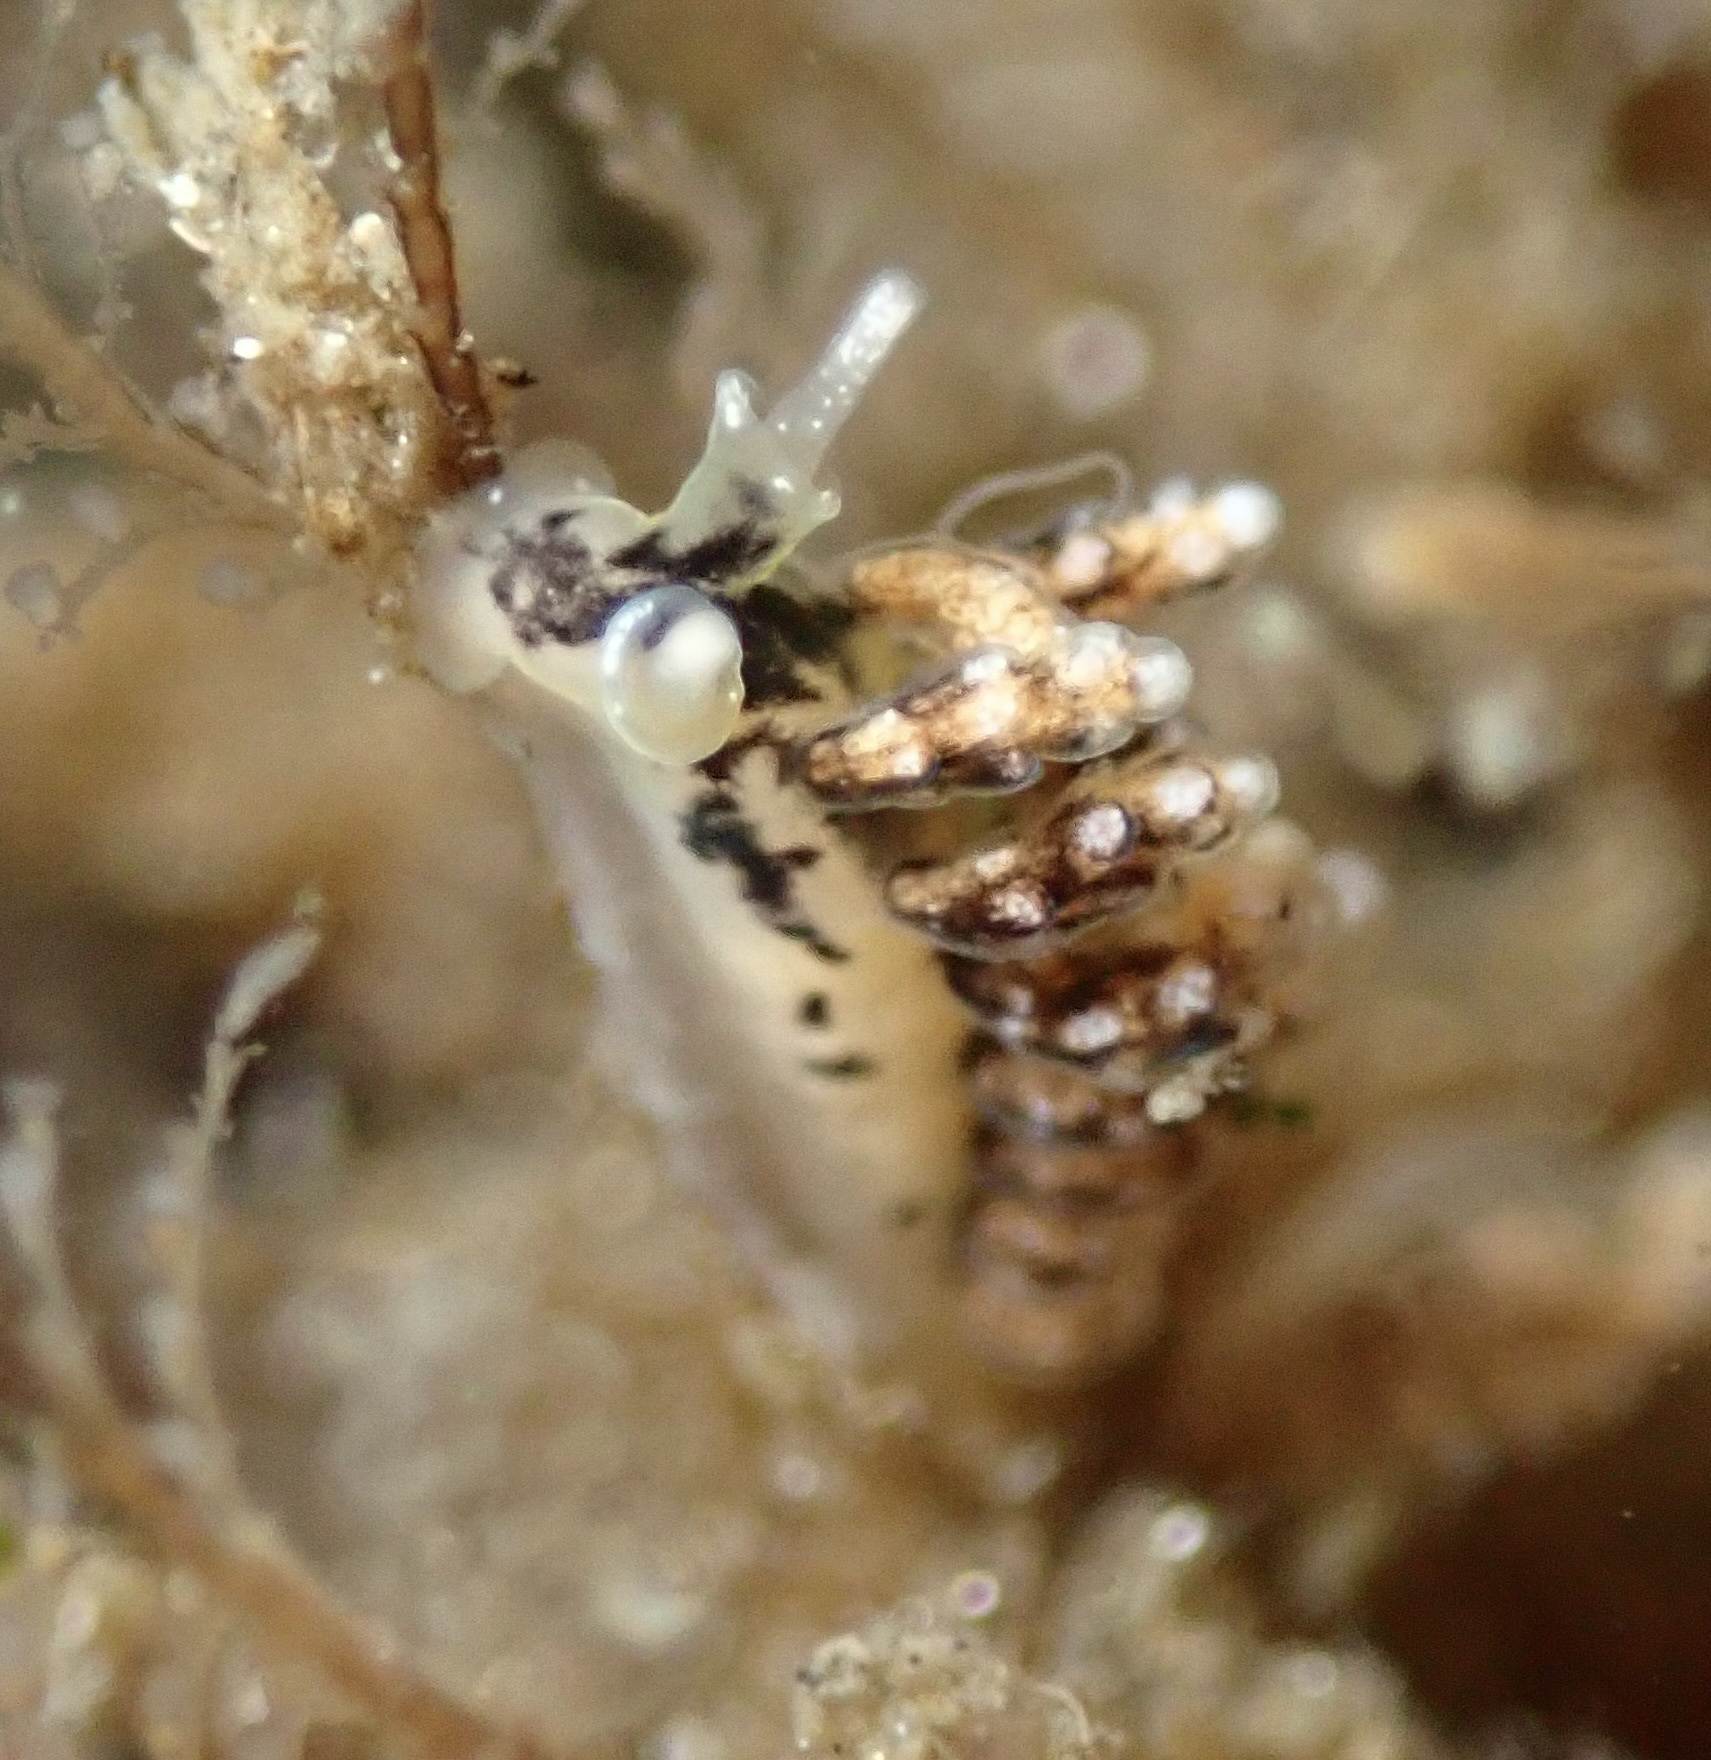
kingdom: Animalia
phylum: Mollusca
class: Gastropoda
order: Nudibranchia
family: Dotidae
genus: Doto
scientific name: Doto kya
